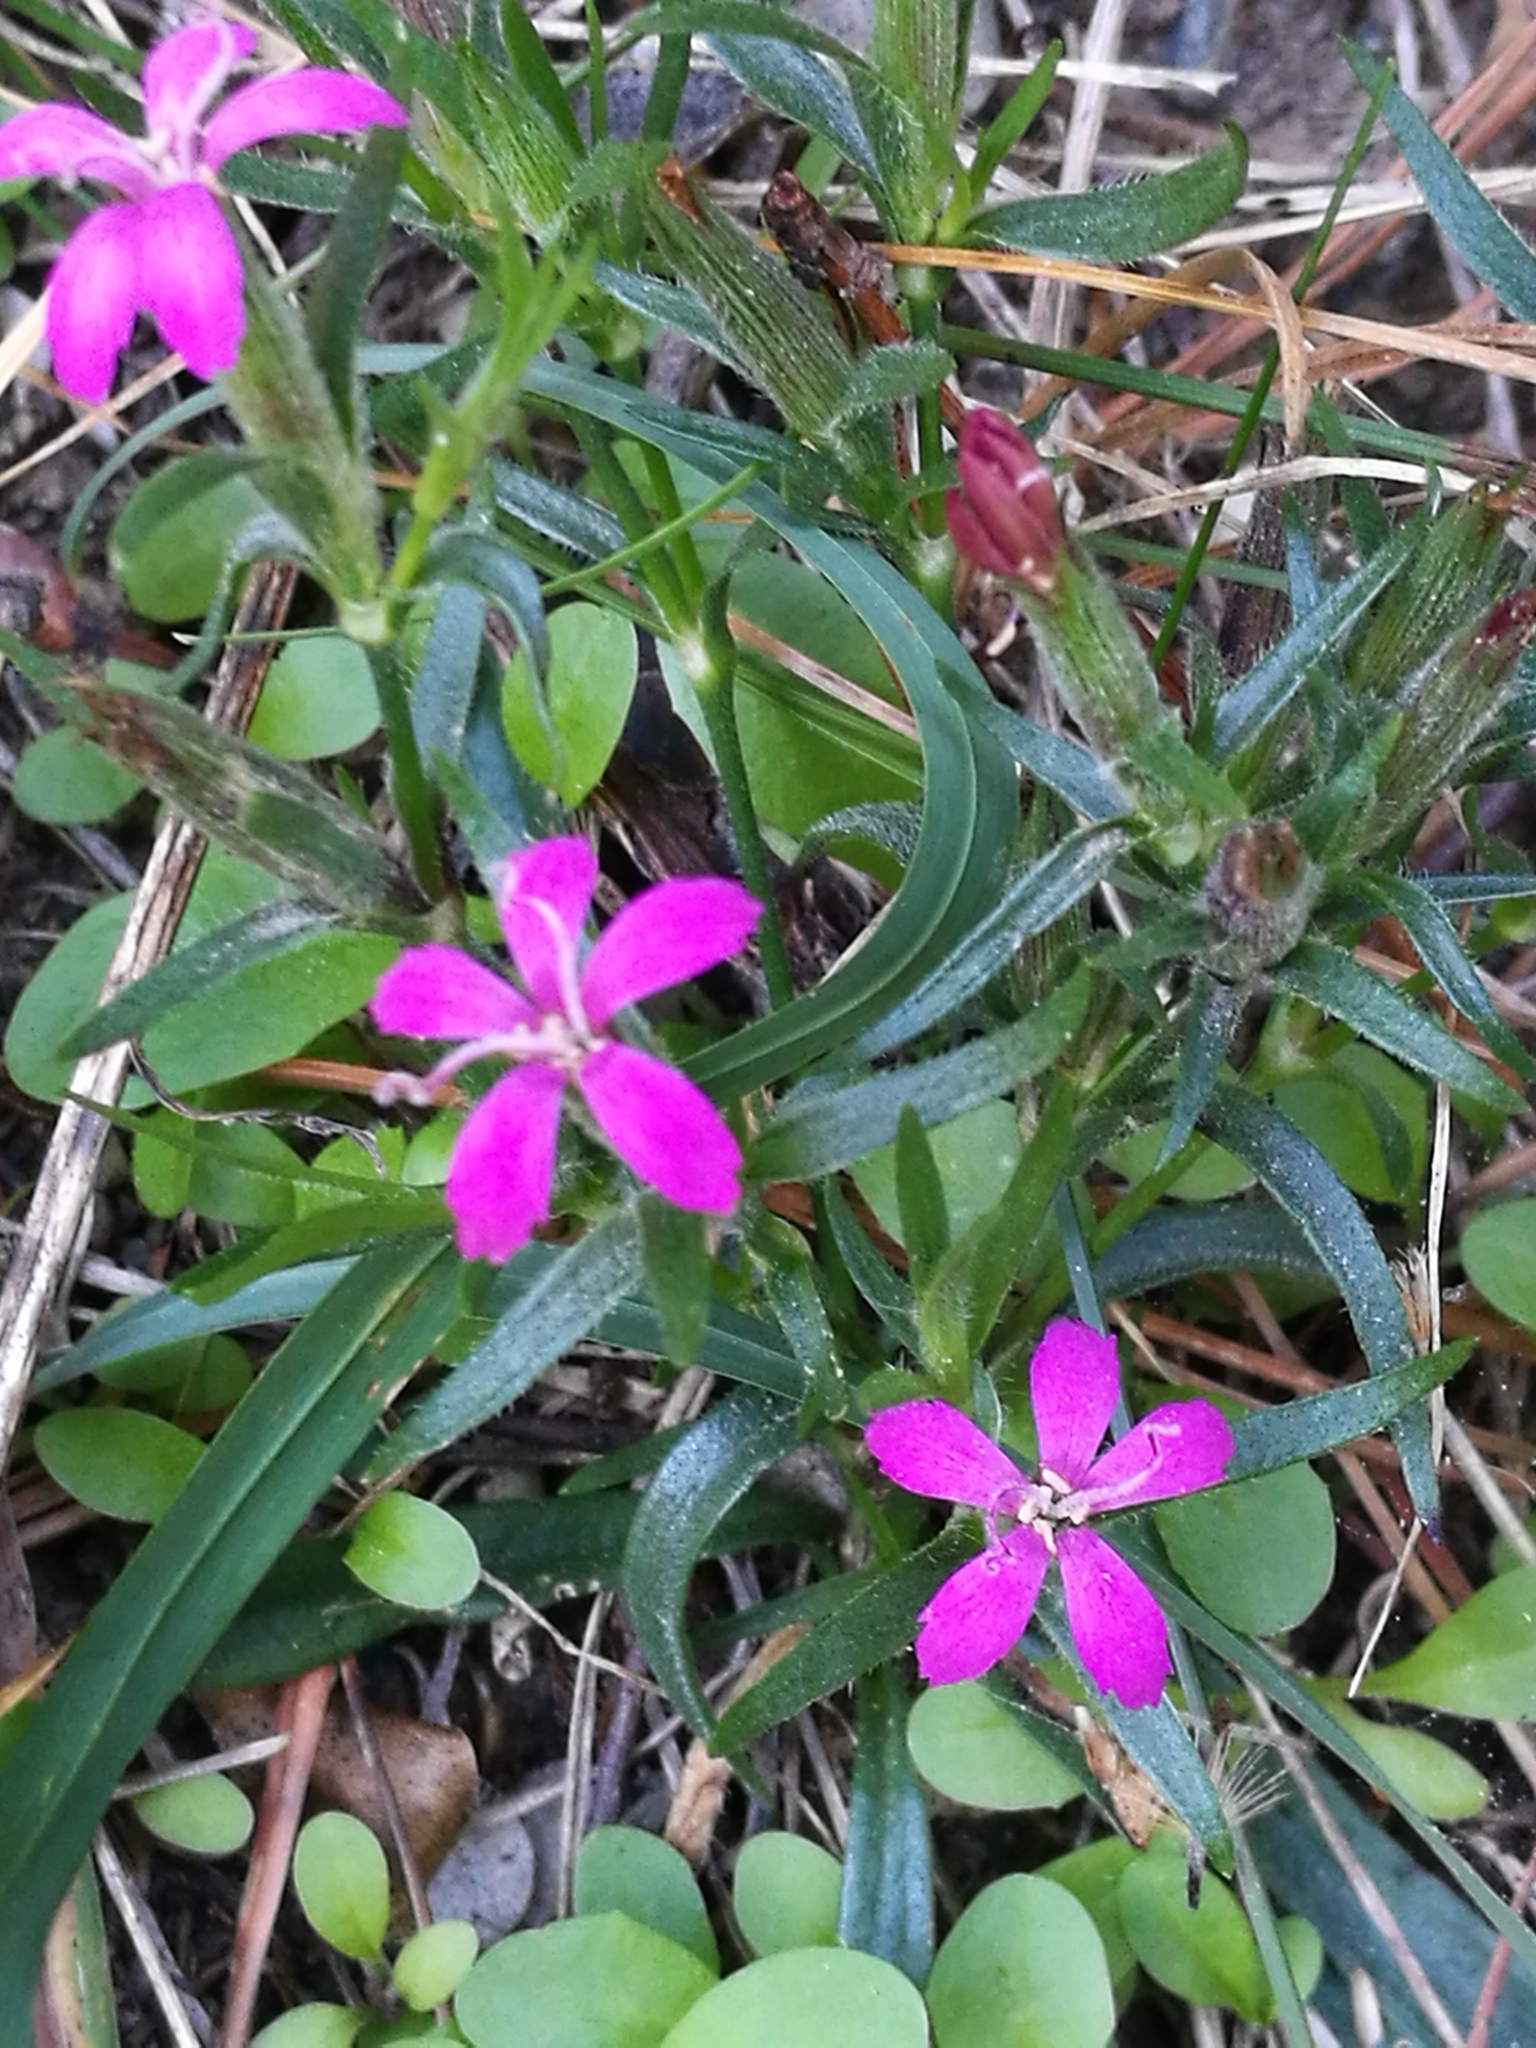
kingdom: Plantae
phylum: Tracheophyta
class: Magnoliopsida
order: Caryophyllales
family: Caryophyllaceae
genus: Dianthus
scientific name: Dianthus armeria
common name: Deptford pink
